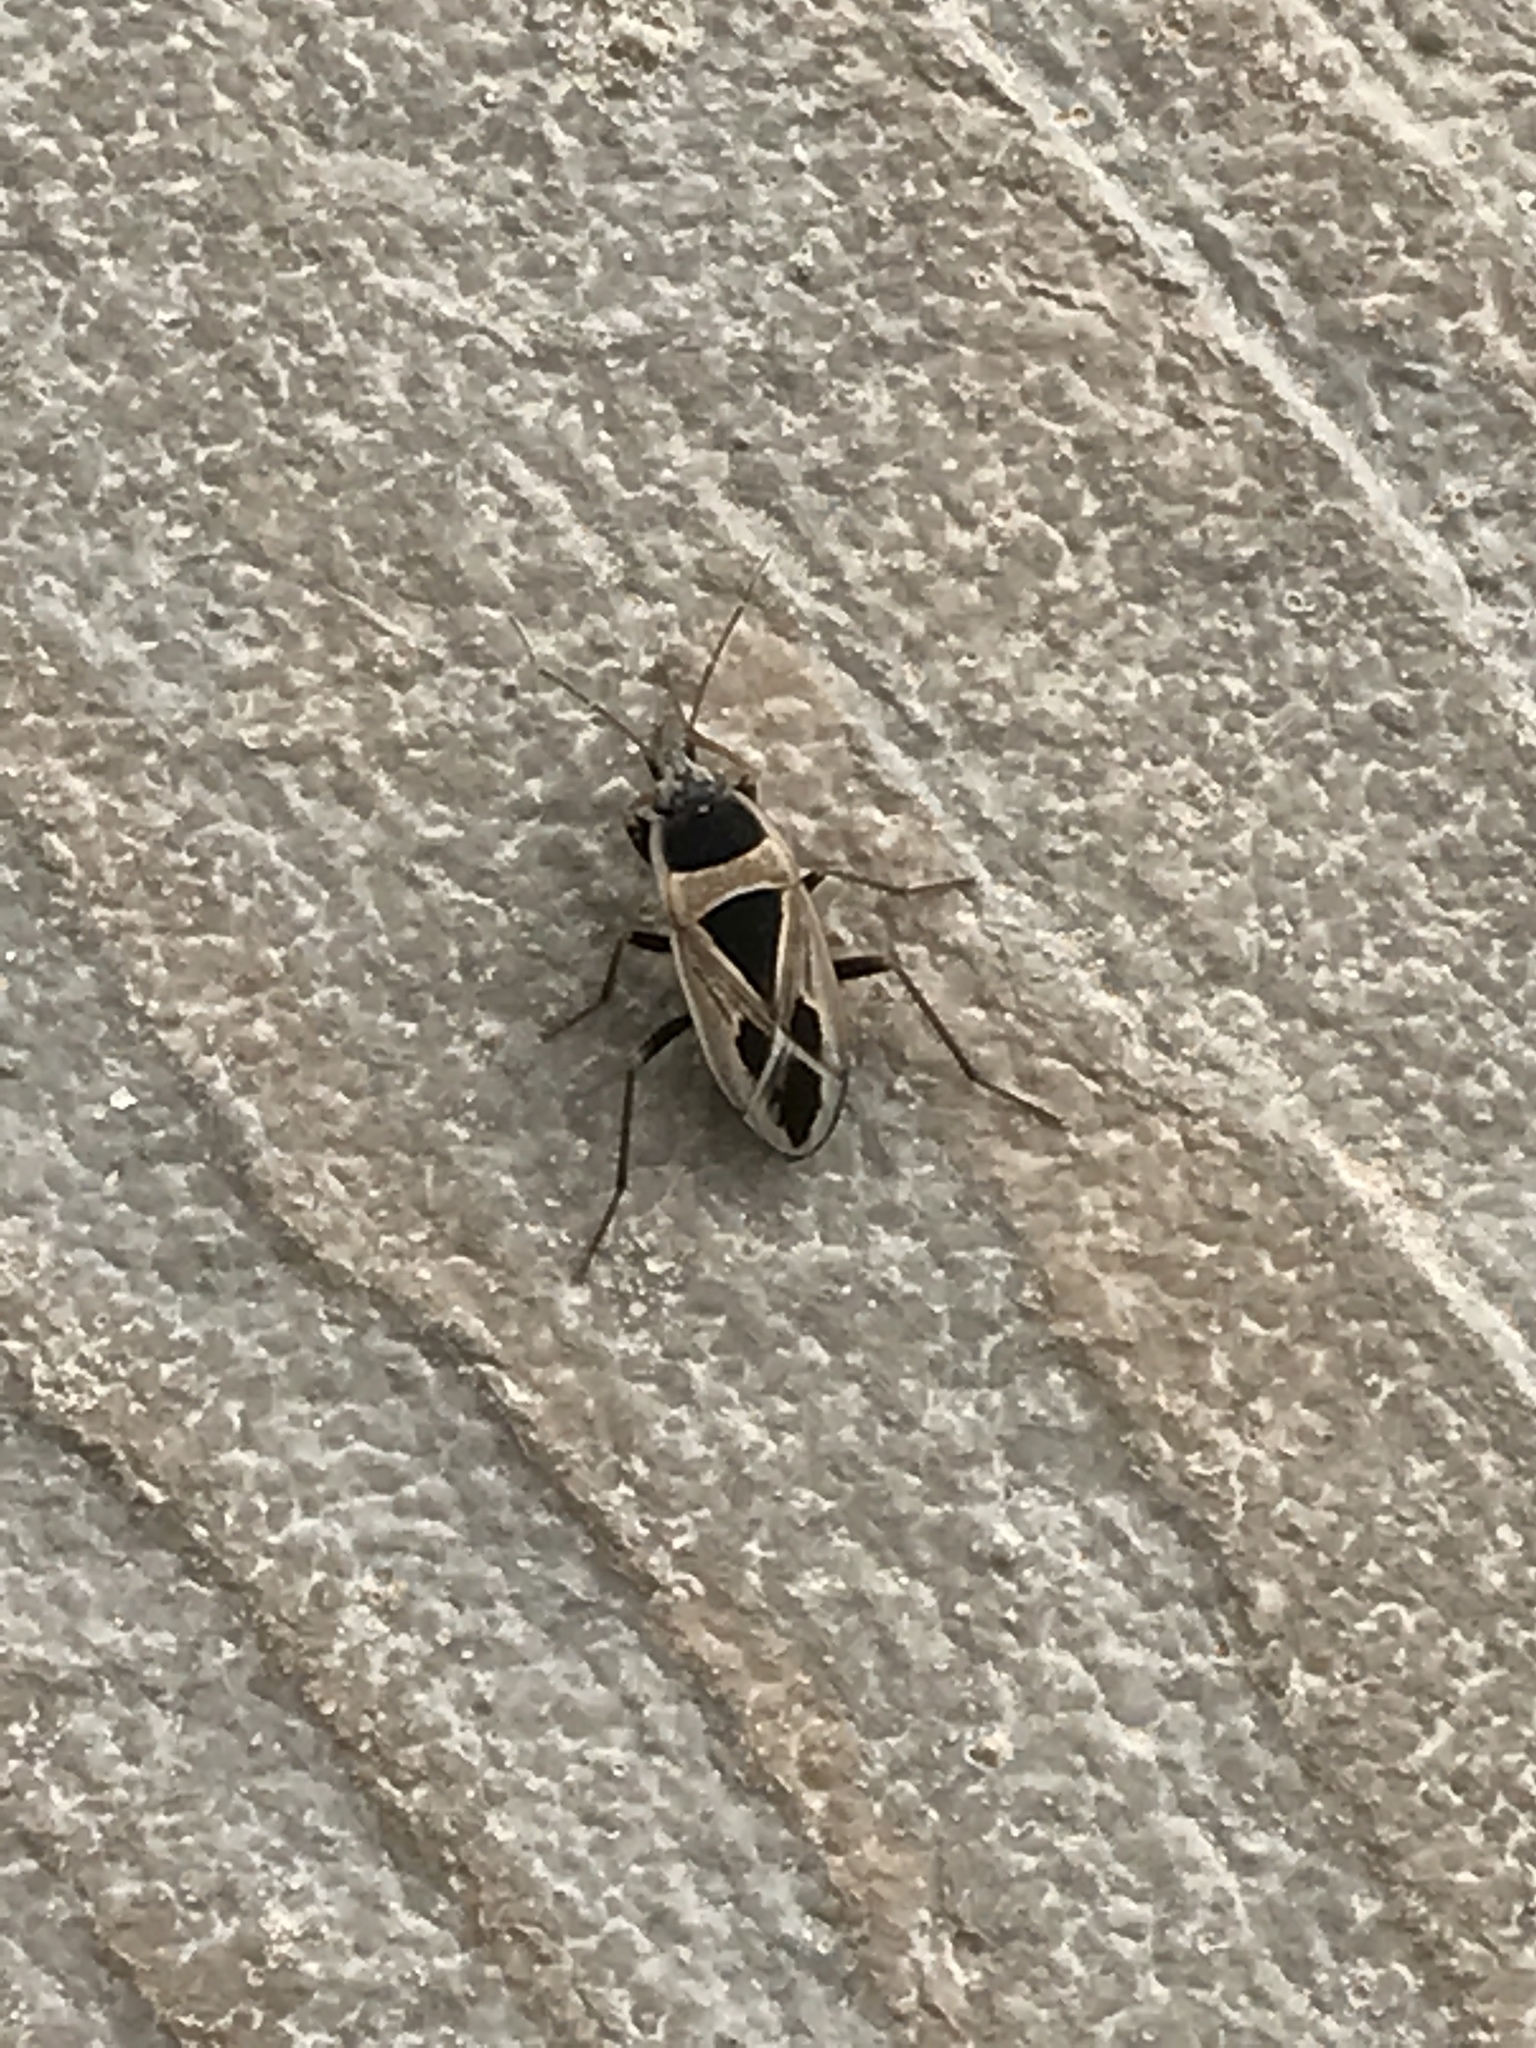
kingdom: Animalia
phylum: Arthropoda
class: Insecta
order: Hemiptera
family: Rhyparochromidae
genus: Xanthochilus
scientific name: Xanthochilus saturnius
